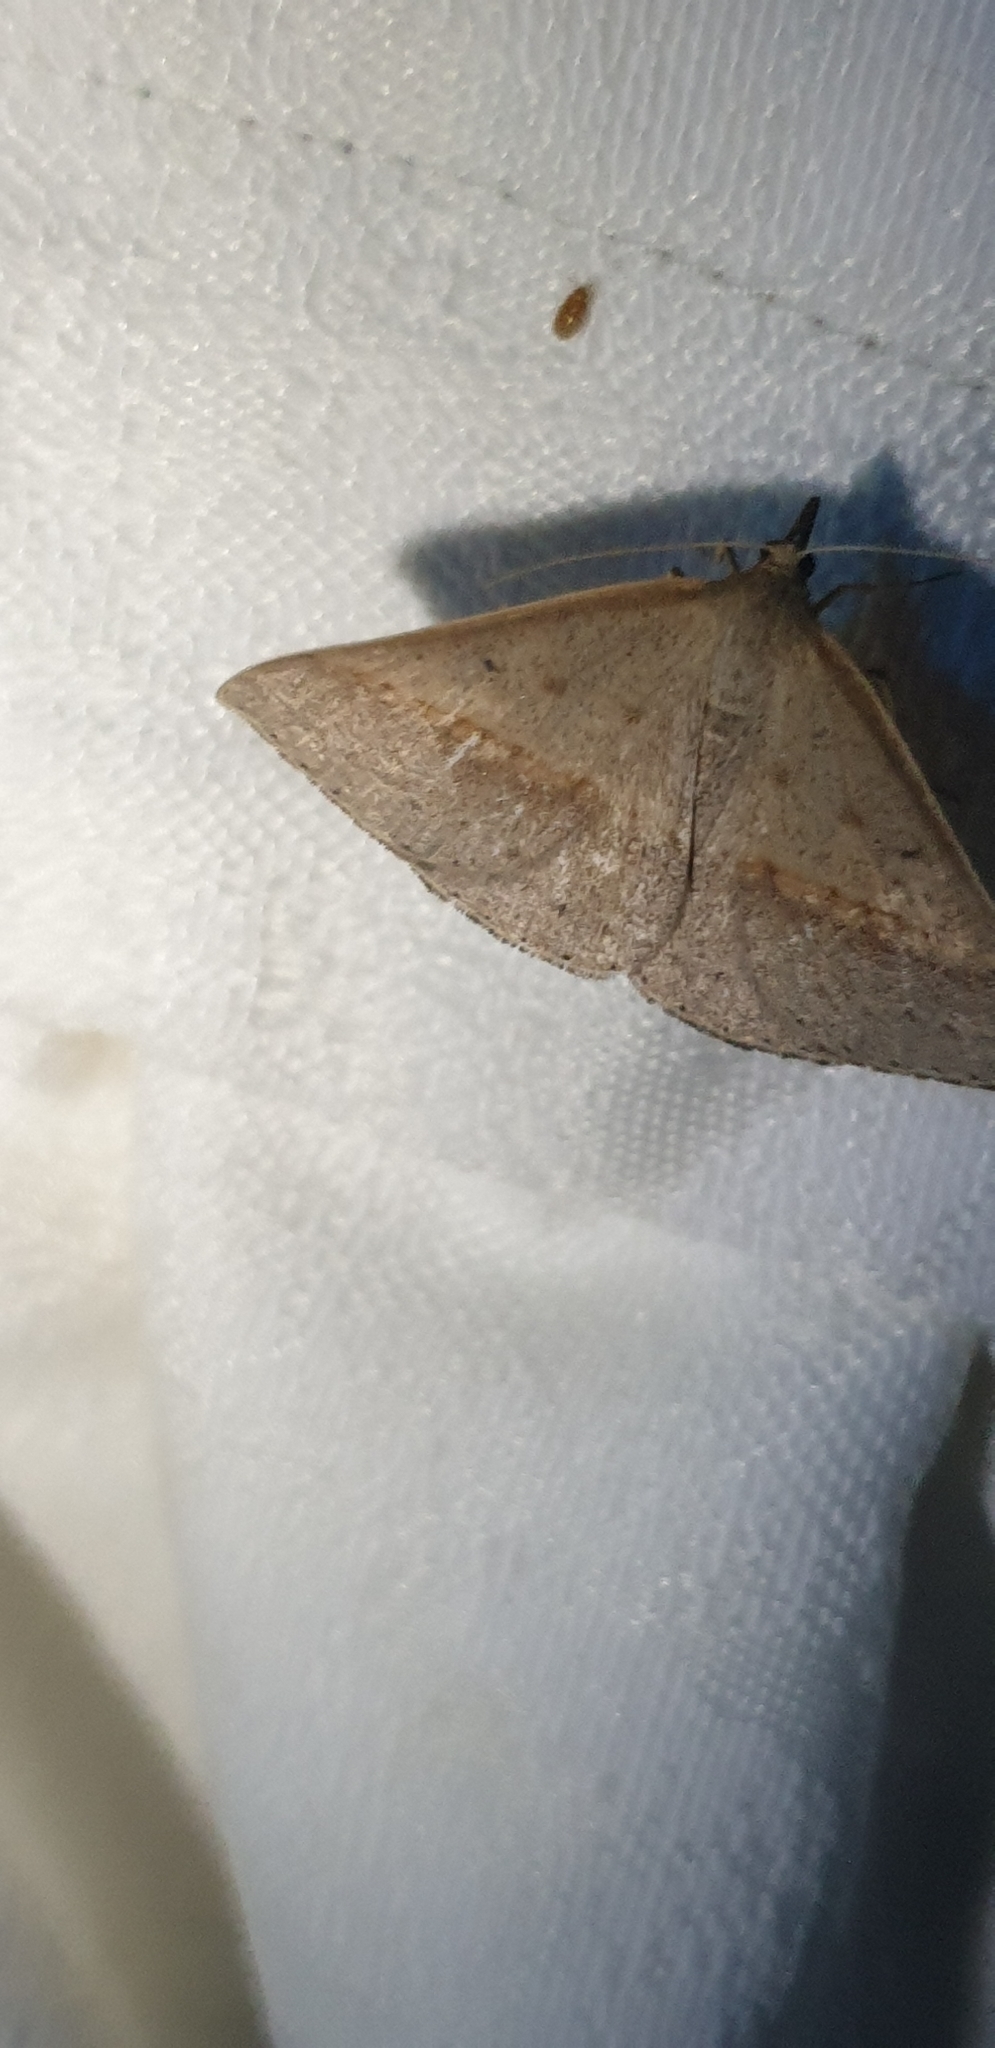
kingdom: Animalia
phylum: Arthropoda
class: Insecta
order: Lepidoptera
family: Geometridae
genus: Epidesmia
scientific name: Epidesmia tryxaria
